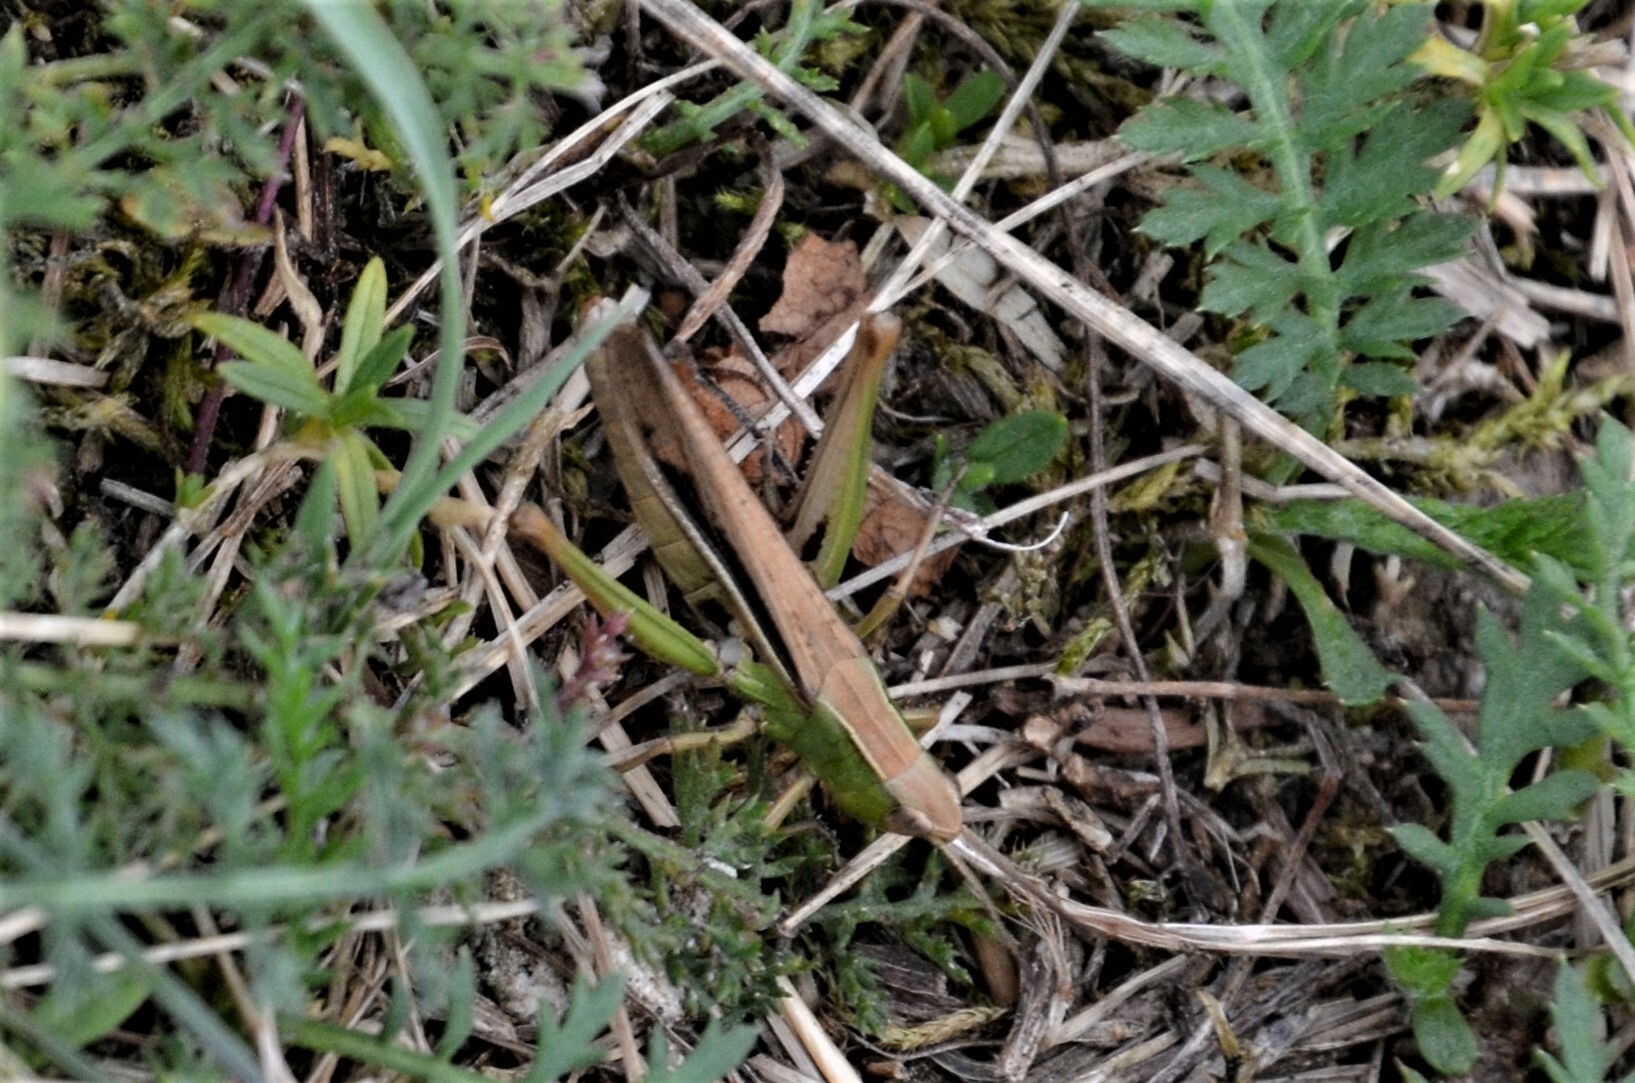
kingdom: Animalia
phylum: Arthropoda
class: Insecta
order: Orthoptera
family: Acrididae
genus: Chorthippus
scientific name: Chorthippus albomarginatus
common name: Lesser marsh grasshopper
